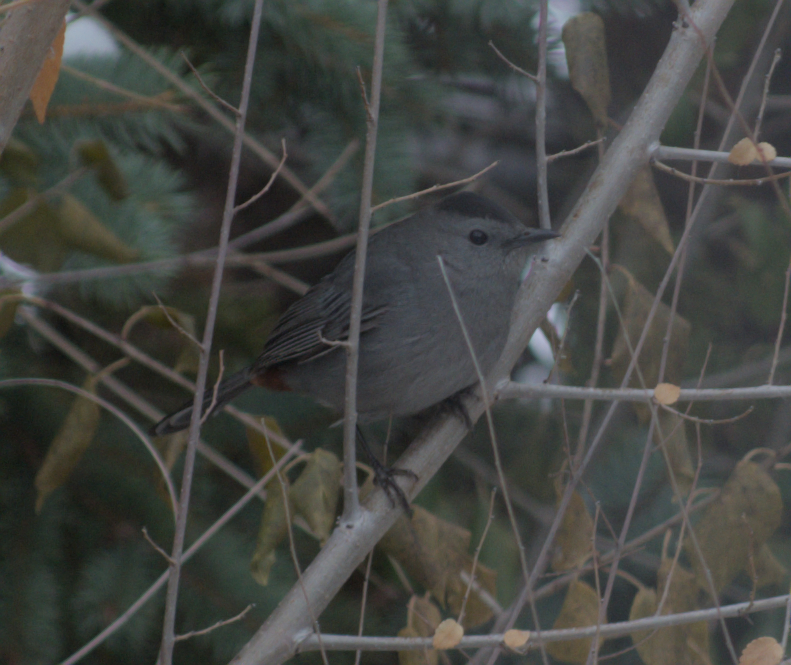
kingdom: Animalia
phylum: Chordata
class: Aves
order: Passeriformes
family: Mimidae
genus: Dumetella
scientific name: Dumetella carolinensis
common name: Gray catbird
